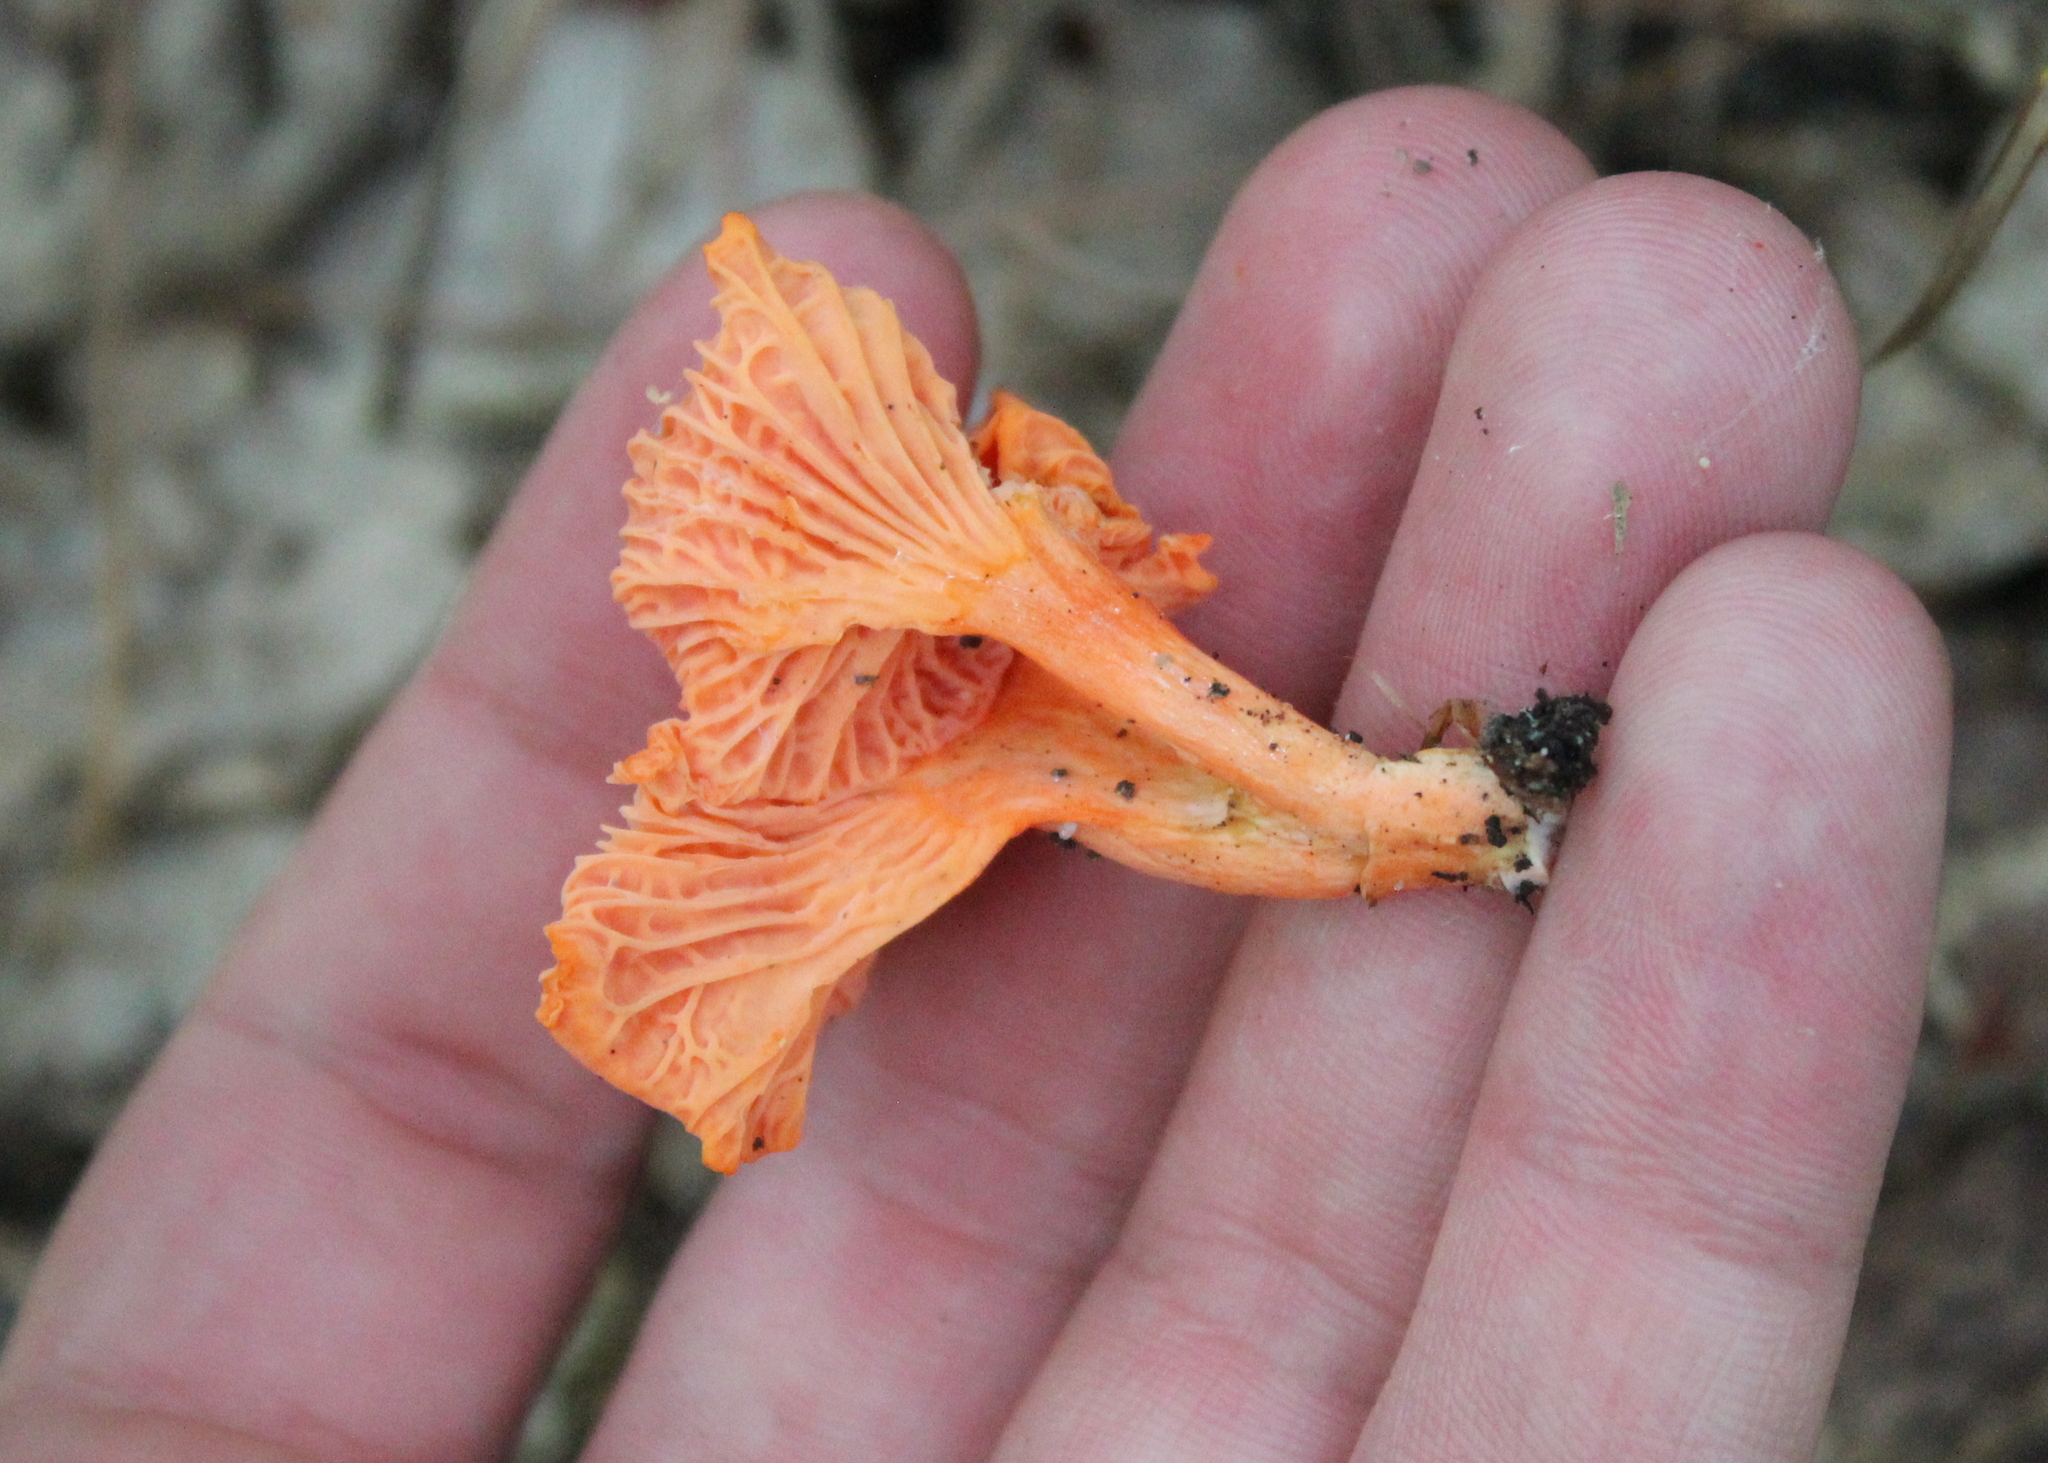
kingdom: Fungi
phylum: Basidiomycota
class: Agaricomycetes
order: Cantharellales
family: Hydnaceae
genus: Cantharellus
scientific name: Cantharellus cinnabarinus
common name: Cinnabar chanterelle
